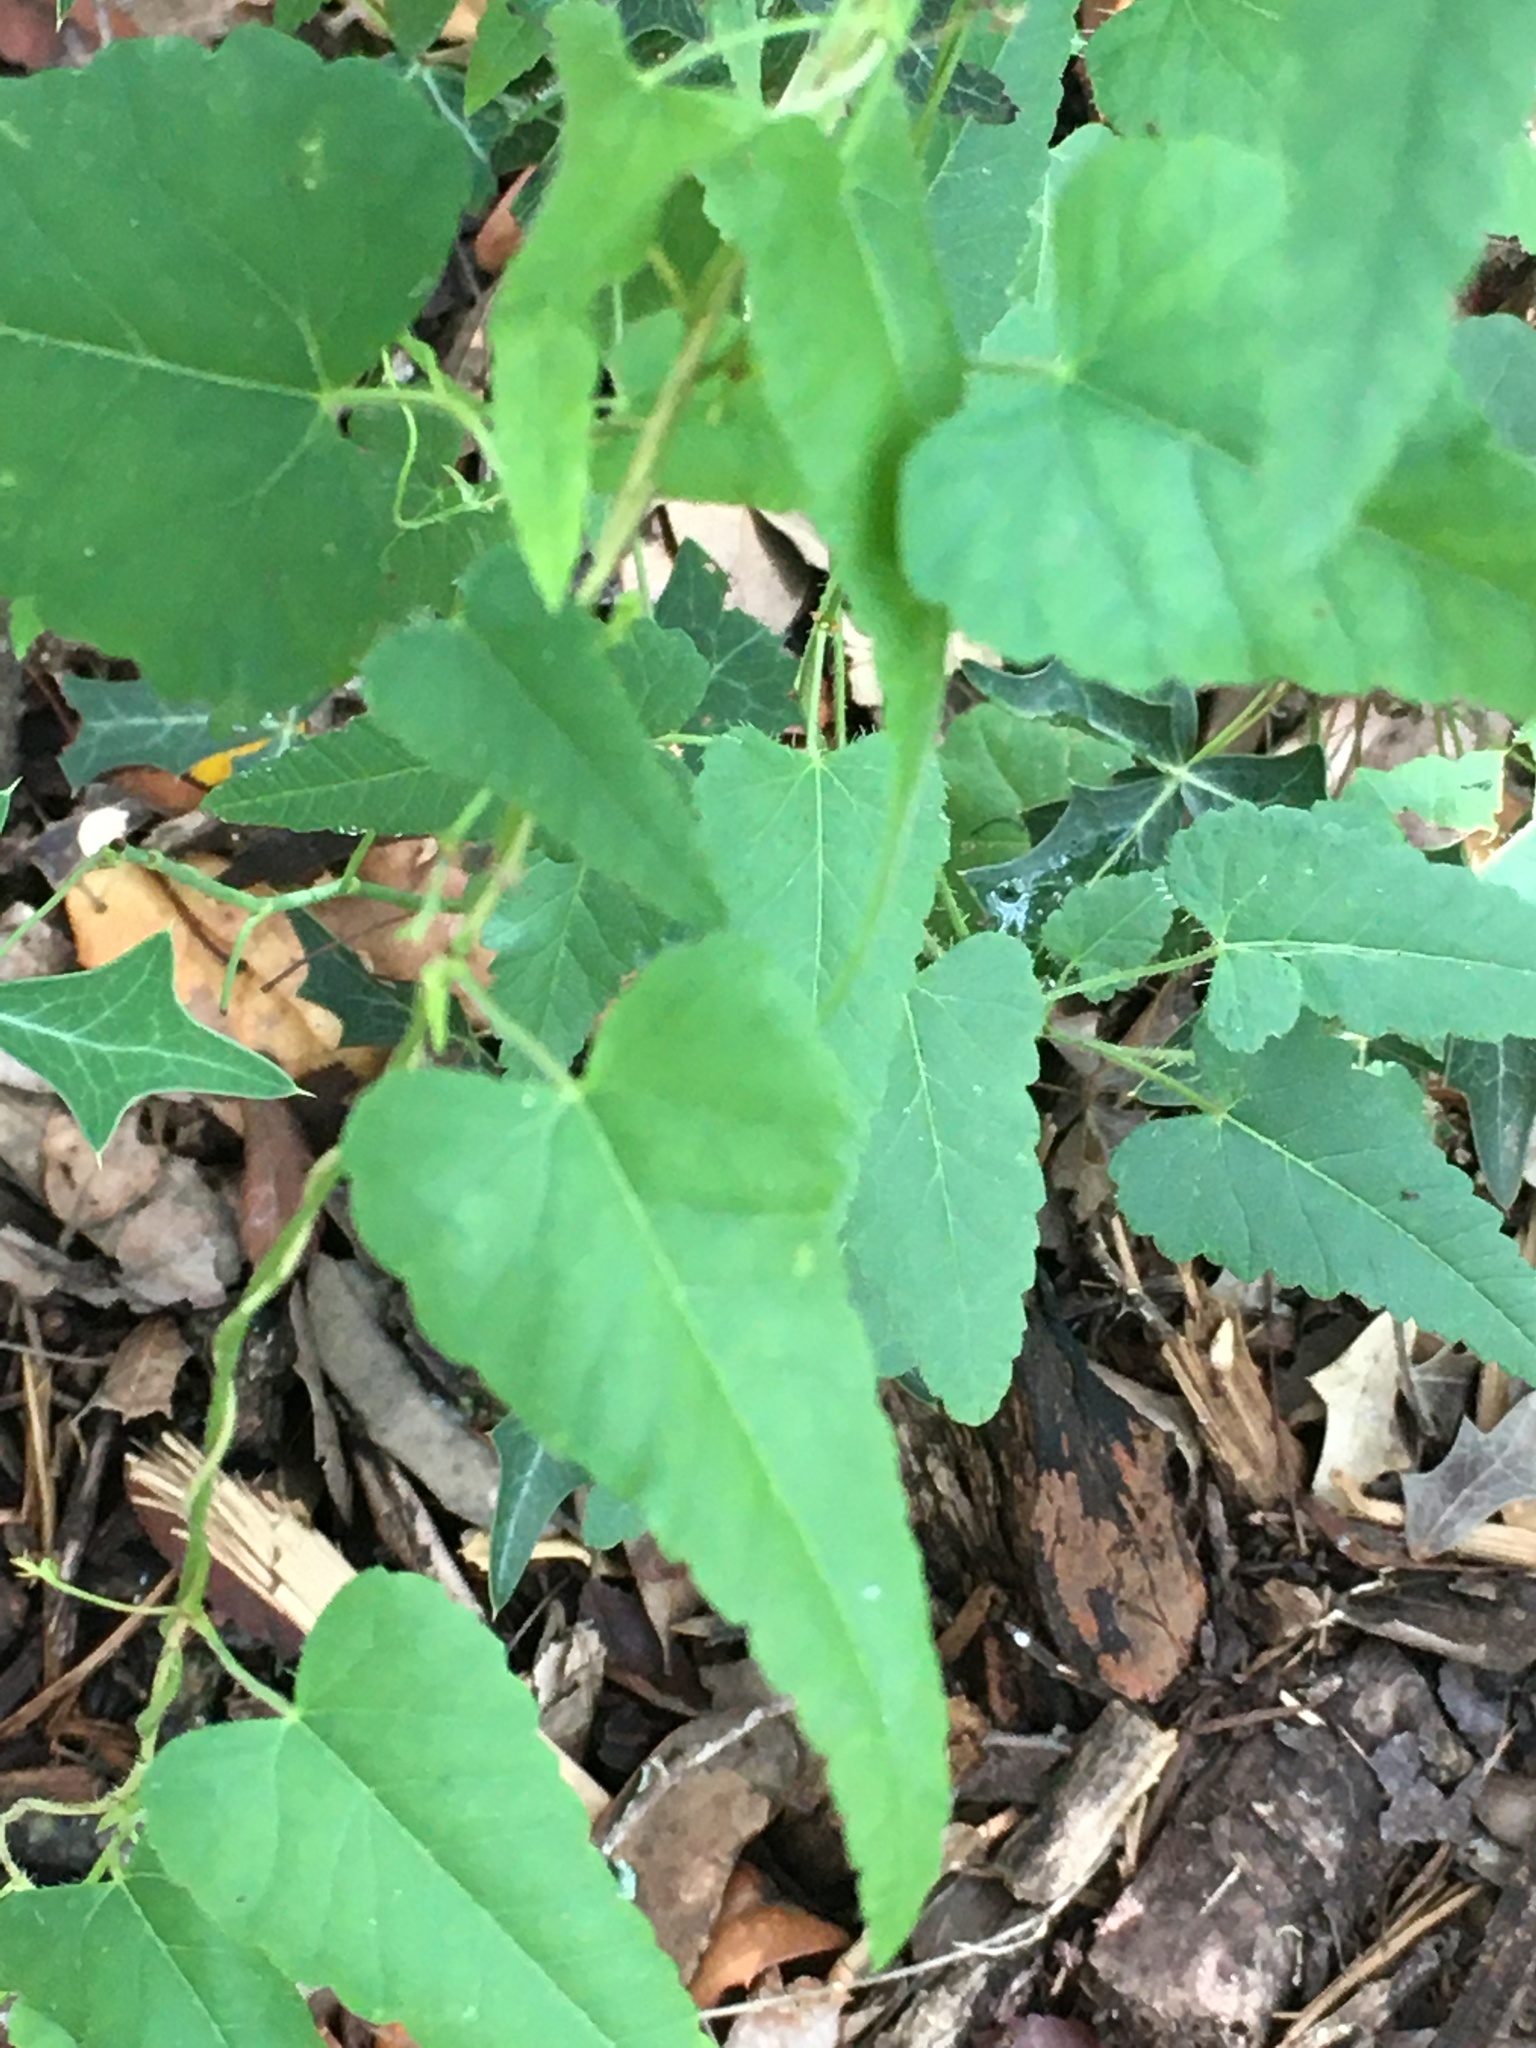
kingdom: Plantae
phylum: Tracheophyta
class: Magnoliopsida
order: Malpighiales
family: Euphorbiaceae
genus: Tragia
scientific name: Tragia urticifolia
